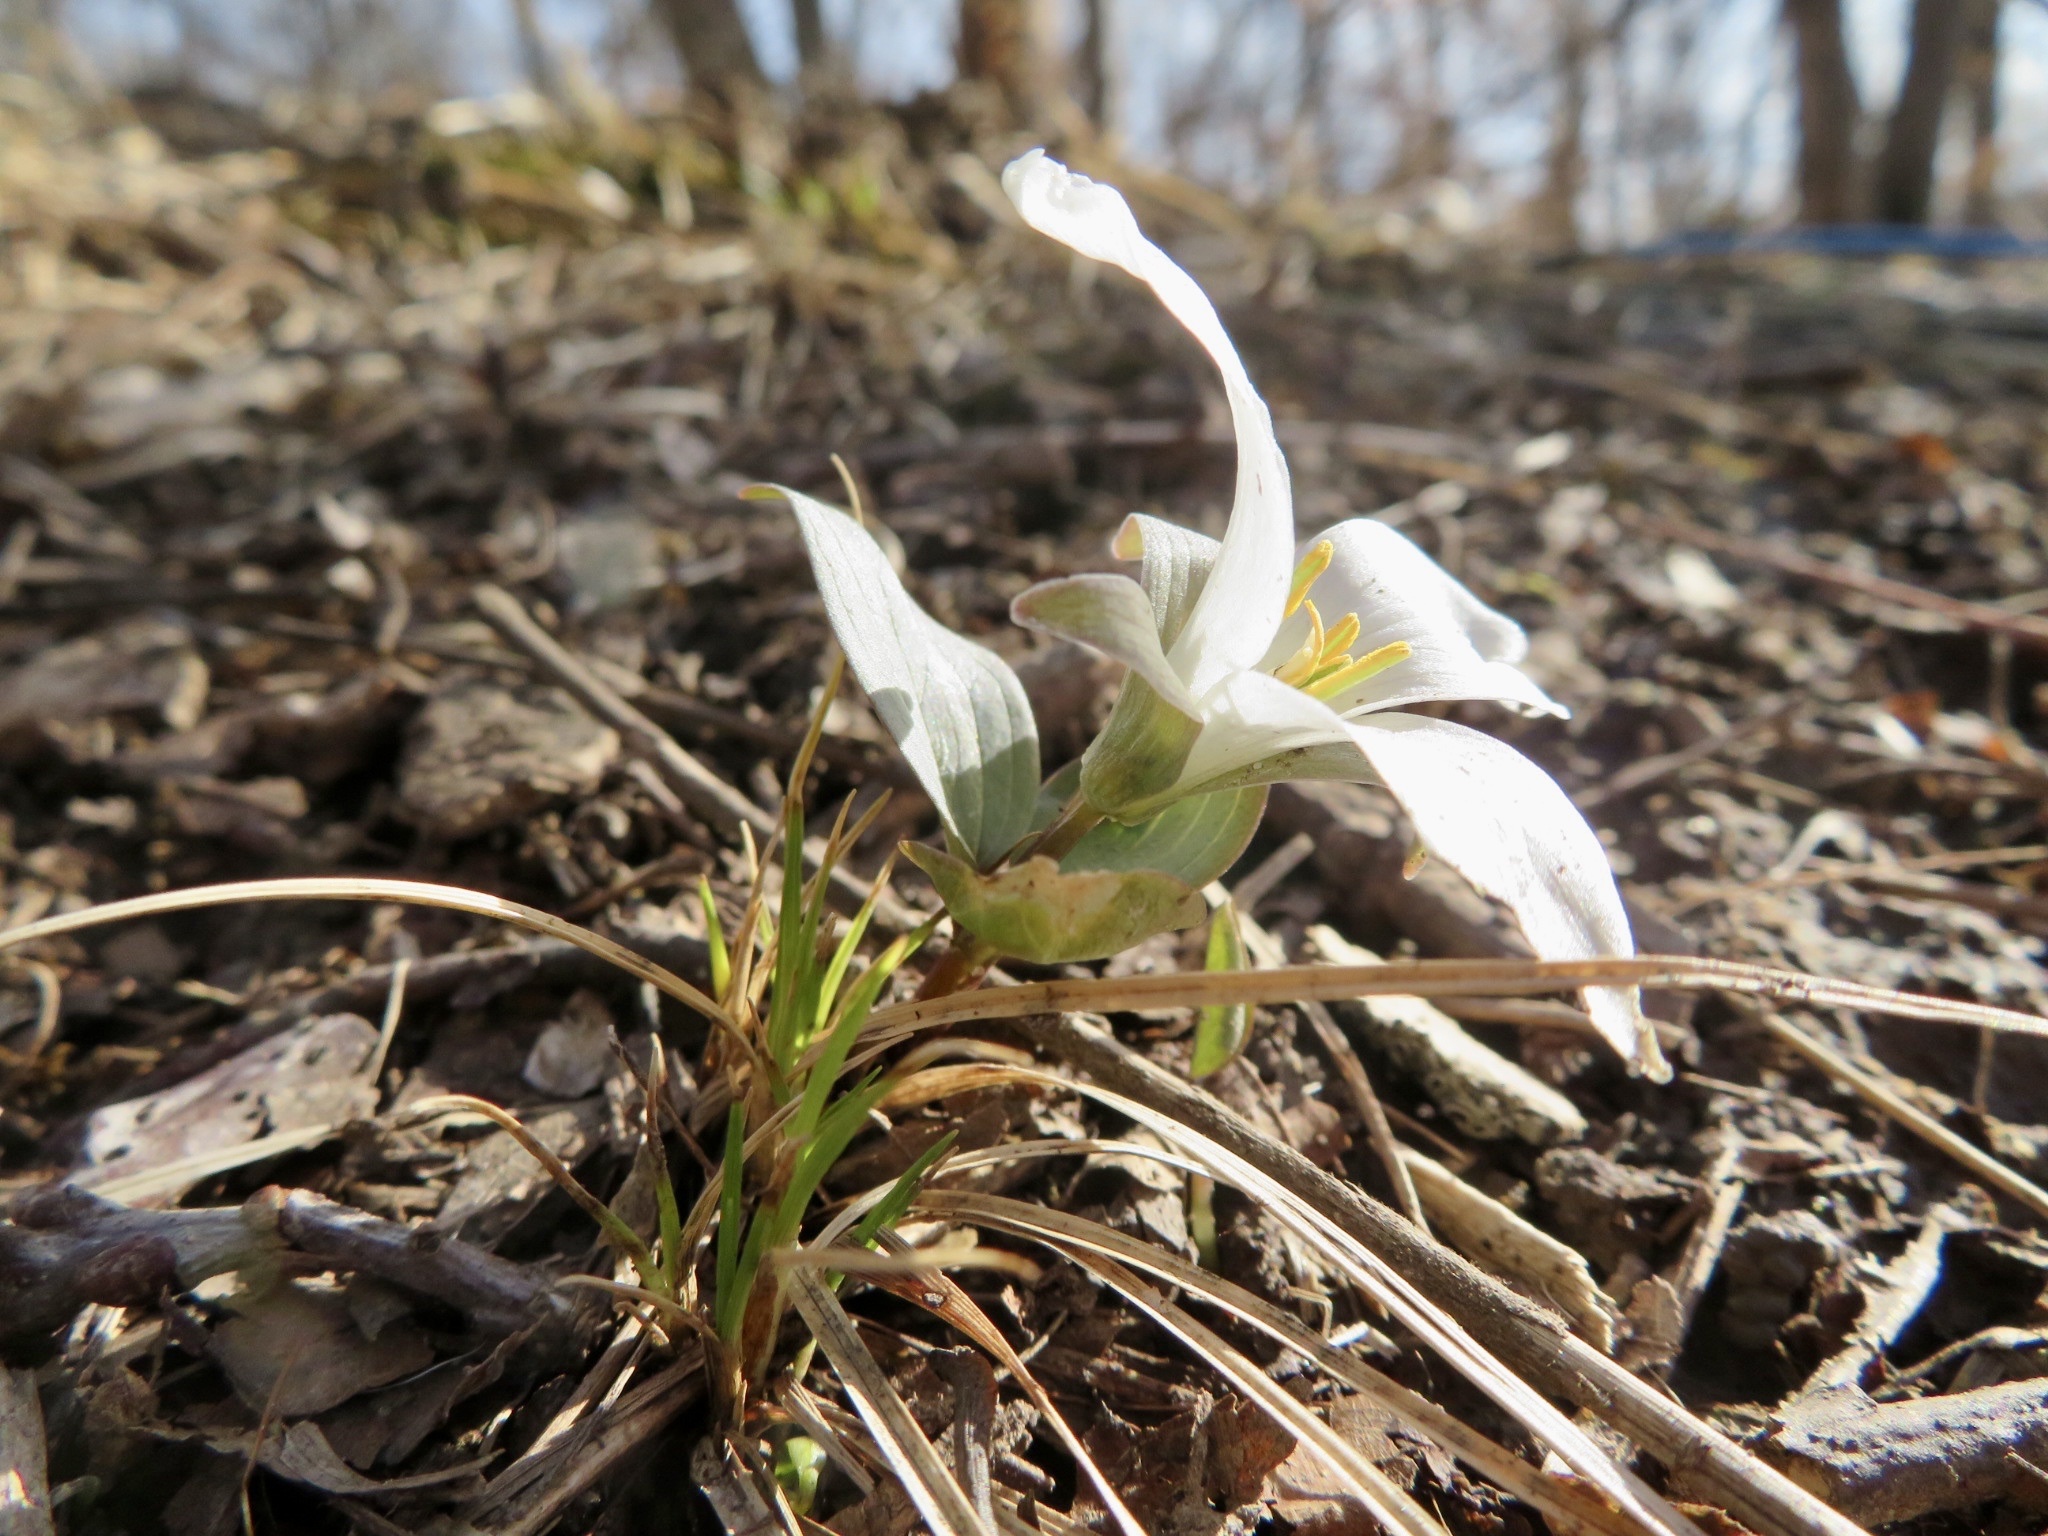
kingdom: Plantae
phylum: Tracheophyta
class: Liliopsida
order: Liliales
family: Melanthiaceae
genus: Trillium
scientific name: Trillium nivale
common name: Dwarf white trillium
